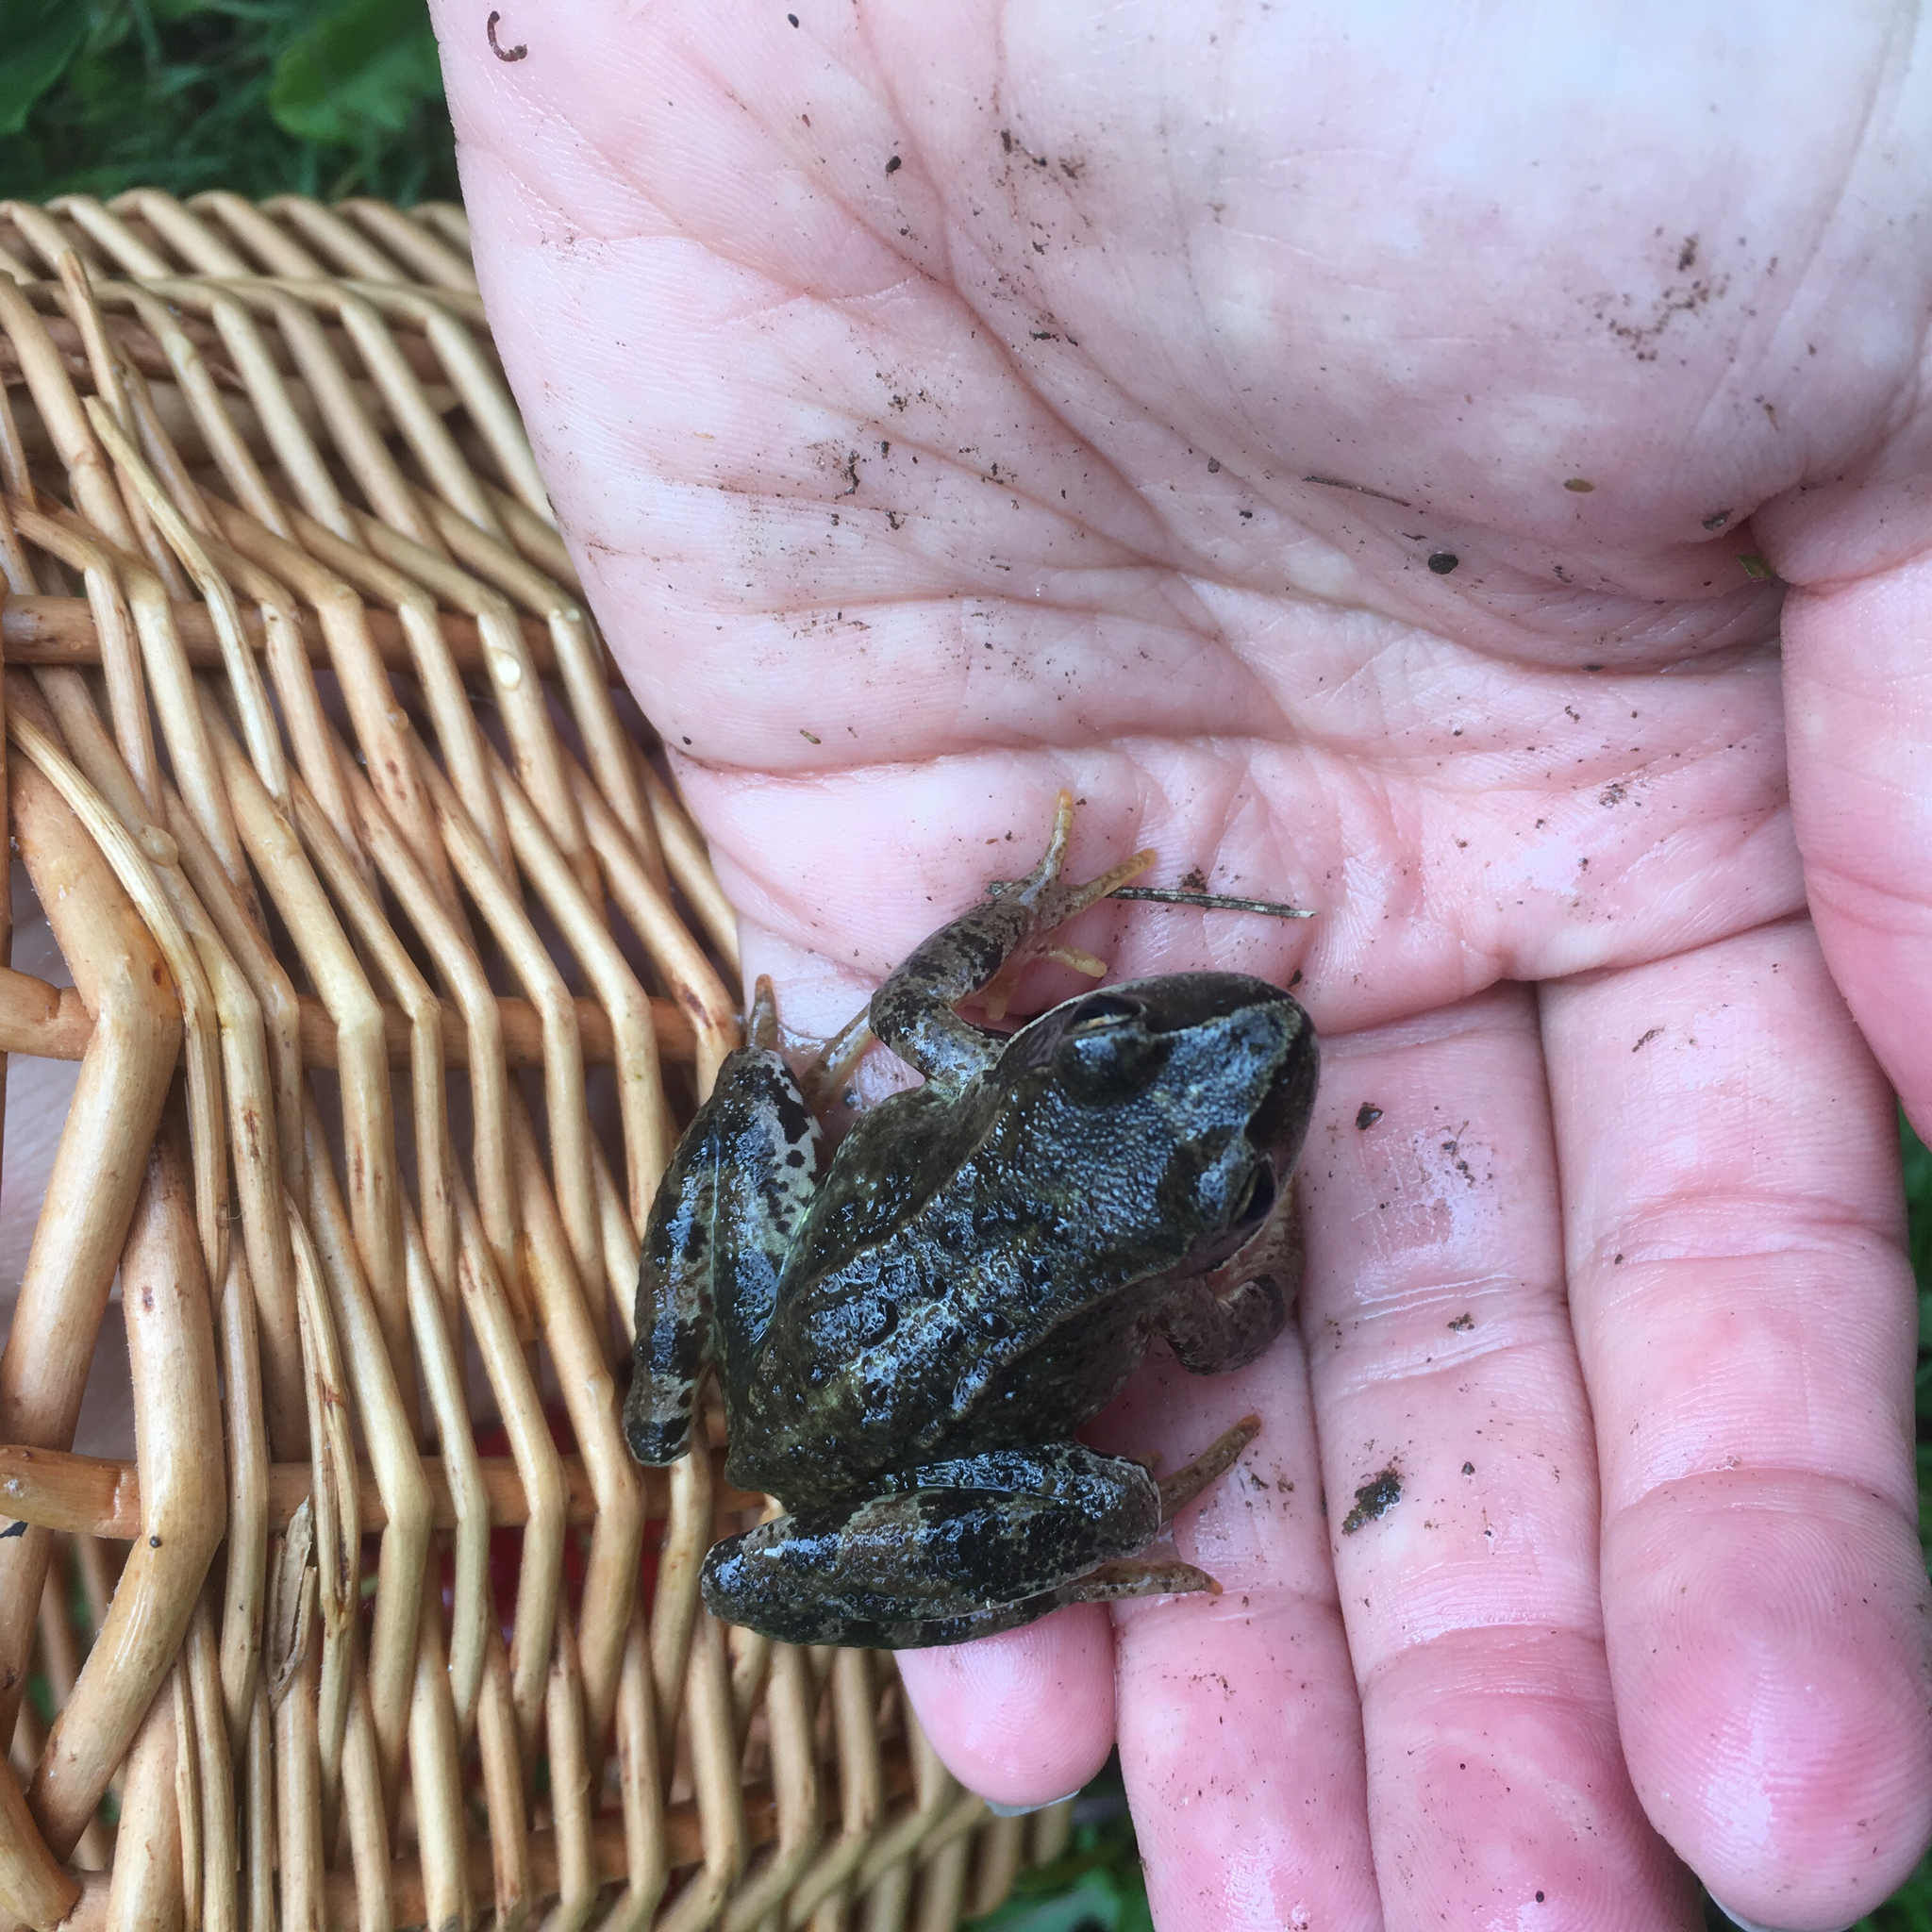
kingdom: Animalia
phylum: Chordata
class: Amphibia
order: Anura
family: Ranidae
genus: Rana
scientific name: Rana temporaria
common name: Common frog
